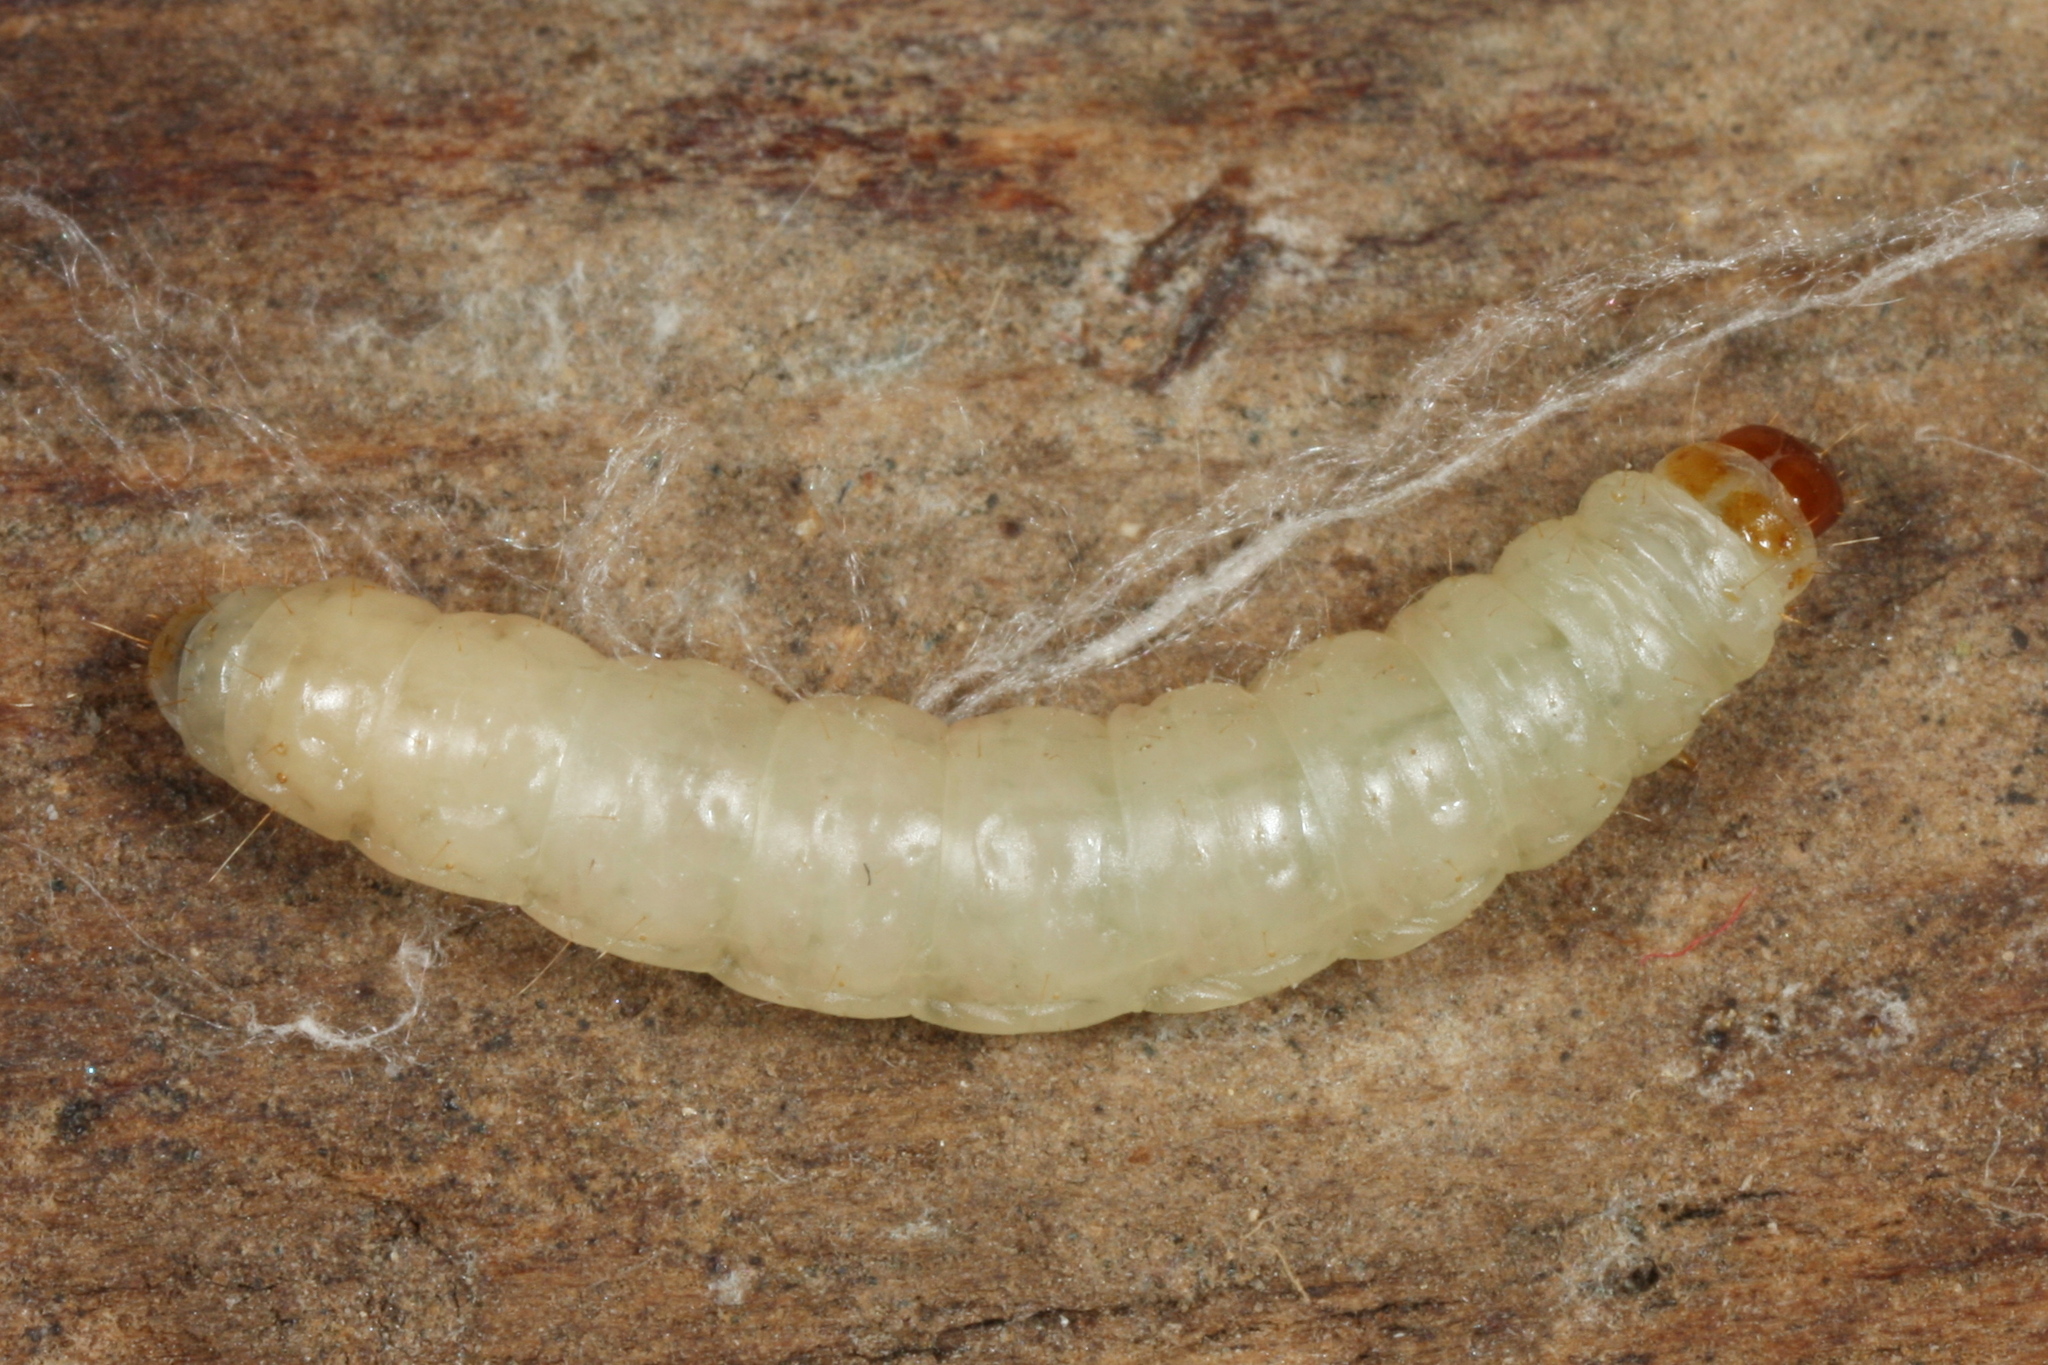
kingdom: Animalia
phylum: Arthropoda
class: Insecta
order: Lepidoptera
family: Pyralidae
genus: Plodia
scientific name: Plodia interpunctella
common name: Indian meal moth
